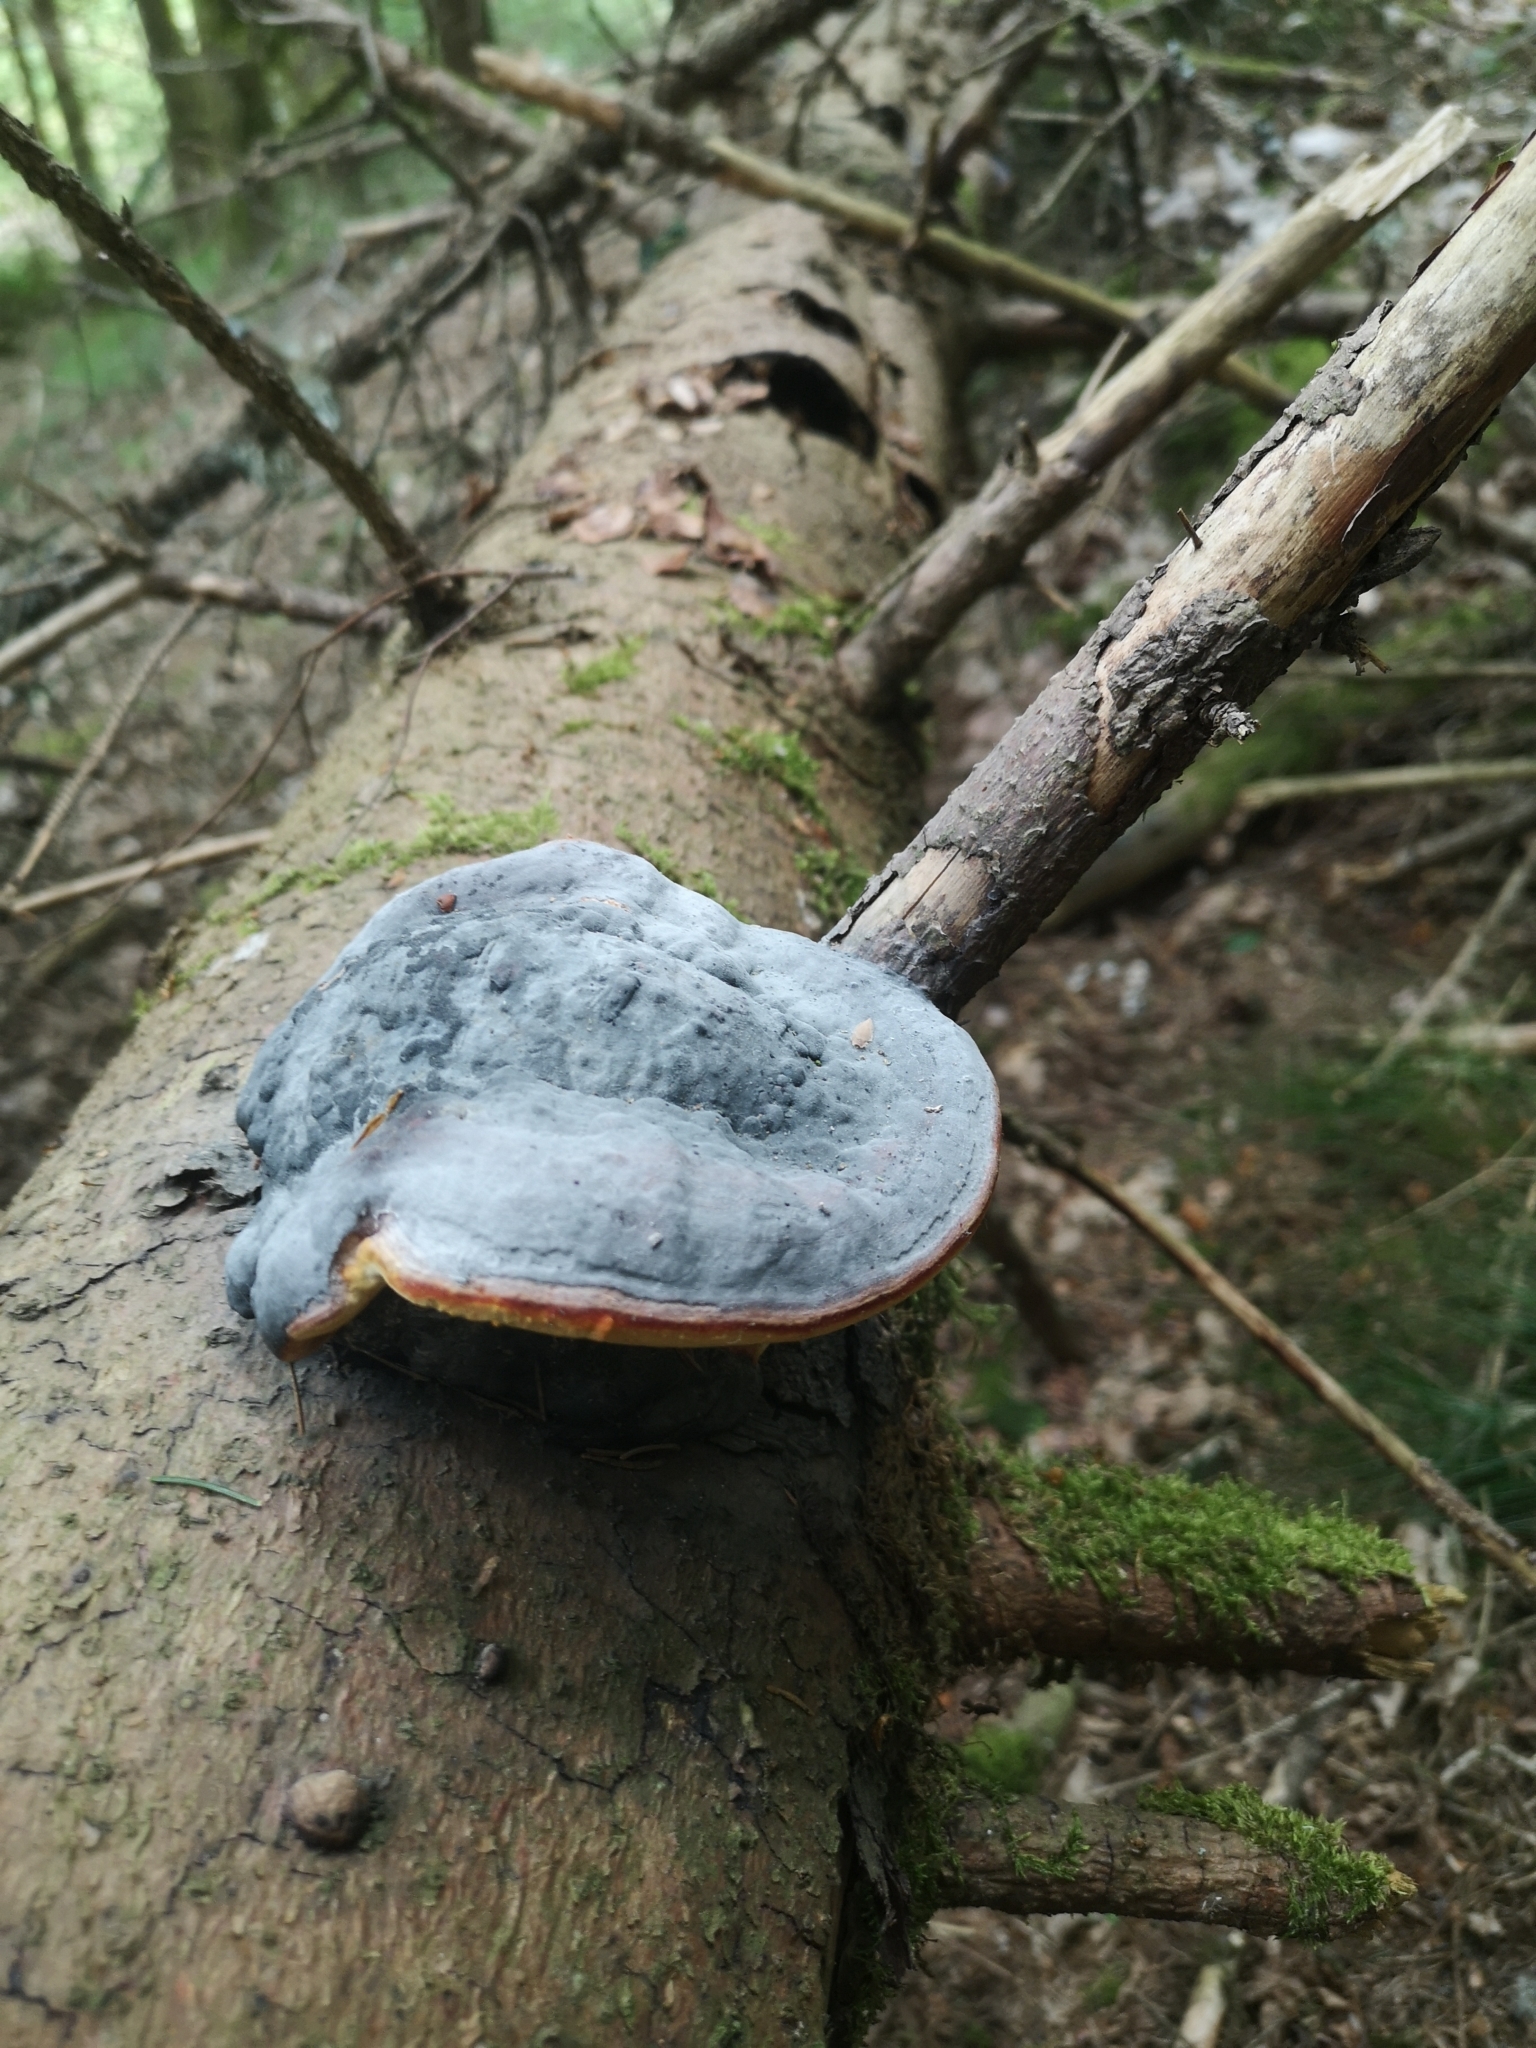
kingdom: Fungi
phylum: Basidiomycota
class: Agaricomycetes
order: Polyporales
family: Fomitopsidaceae
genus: Fomitopsis
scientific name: Fomitopsis pinicola
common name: Red-belted bracket
